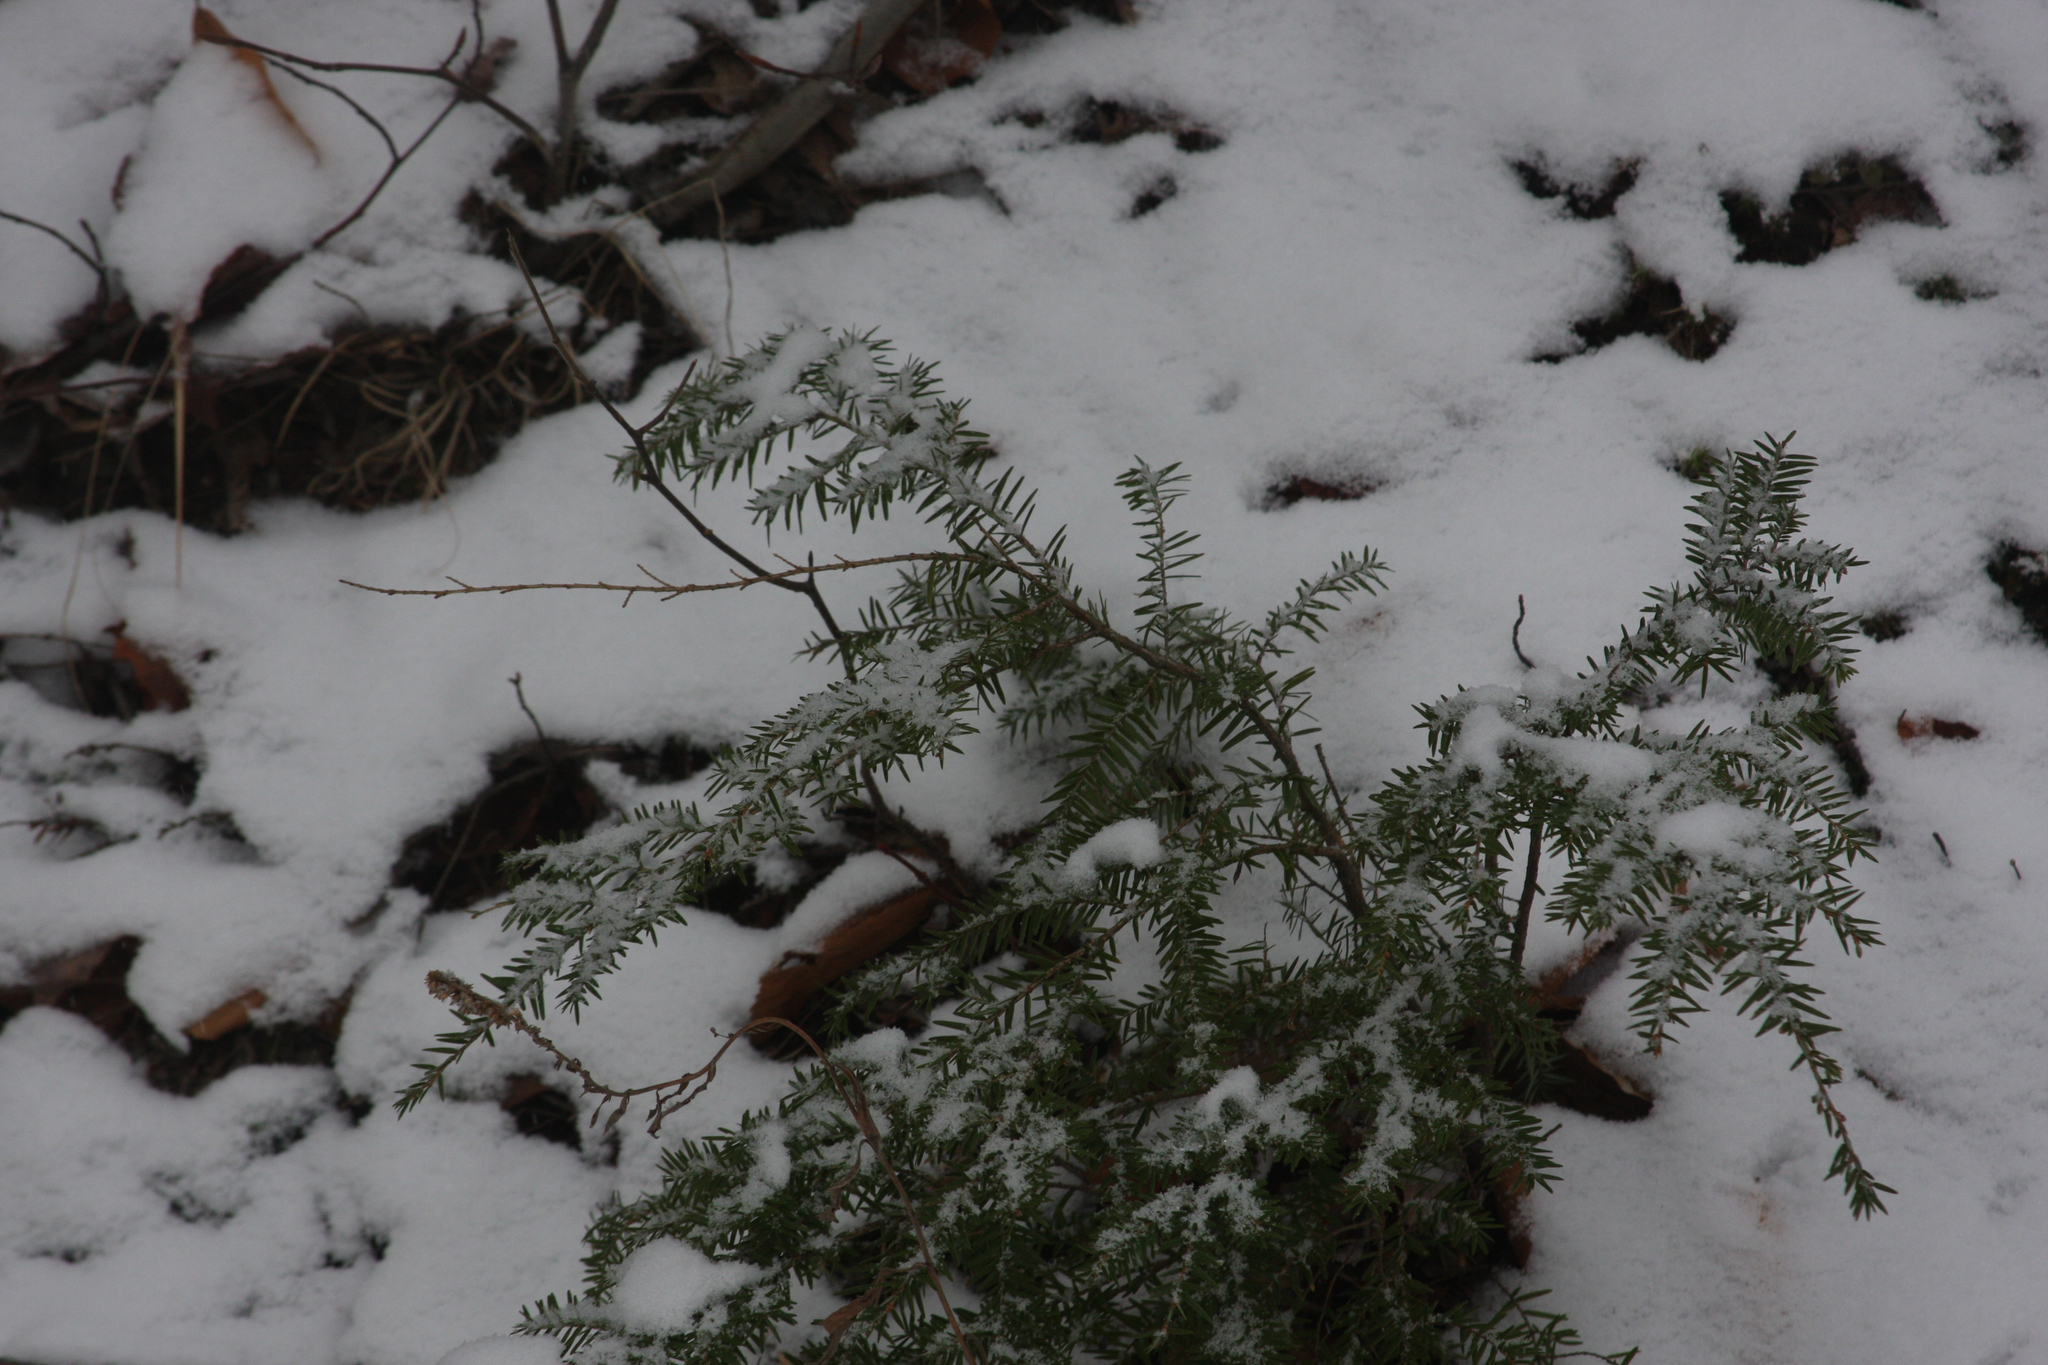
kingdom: Plantae
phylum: Tracheophyta
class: Pinopsida
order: Pinales
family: Pinaceae
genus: Tsuga
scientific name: Tsuga canadensis
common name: Eastern hemlock
